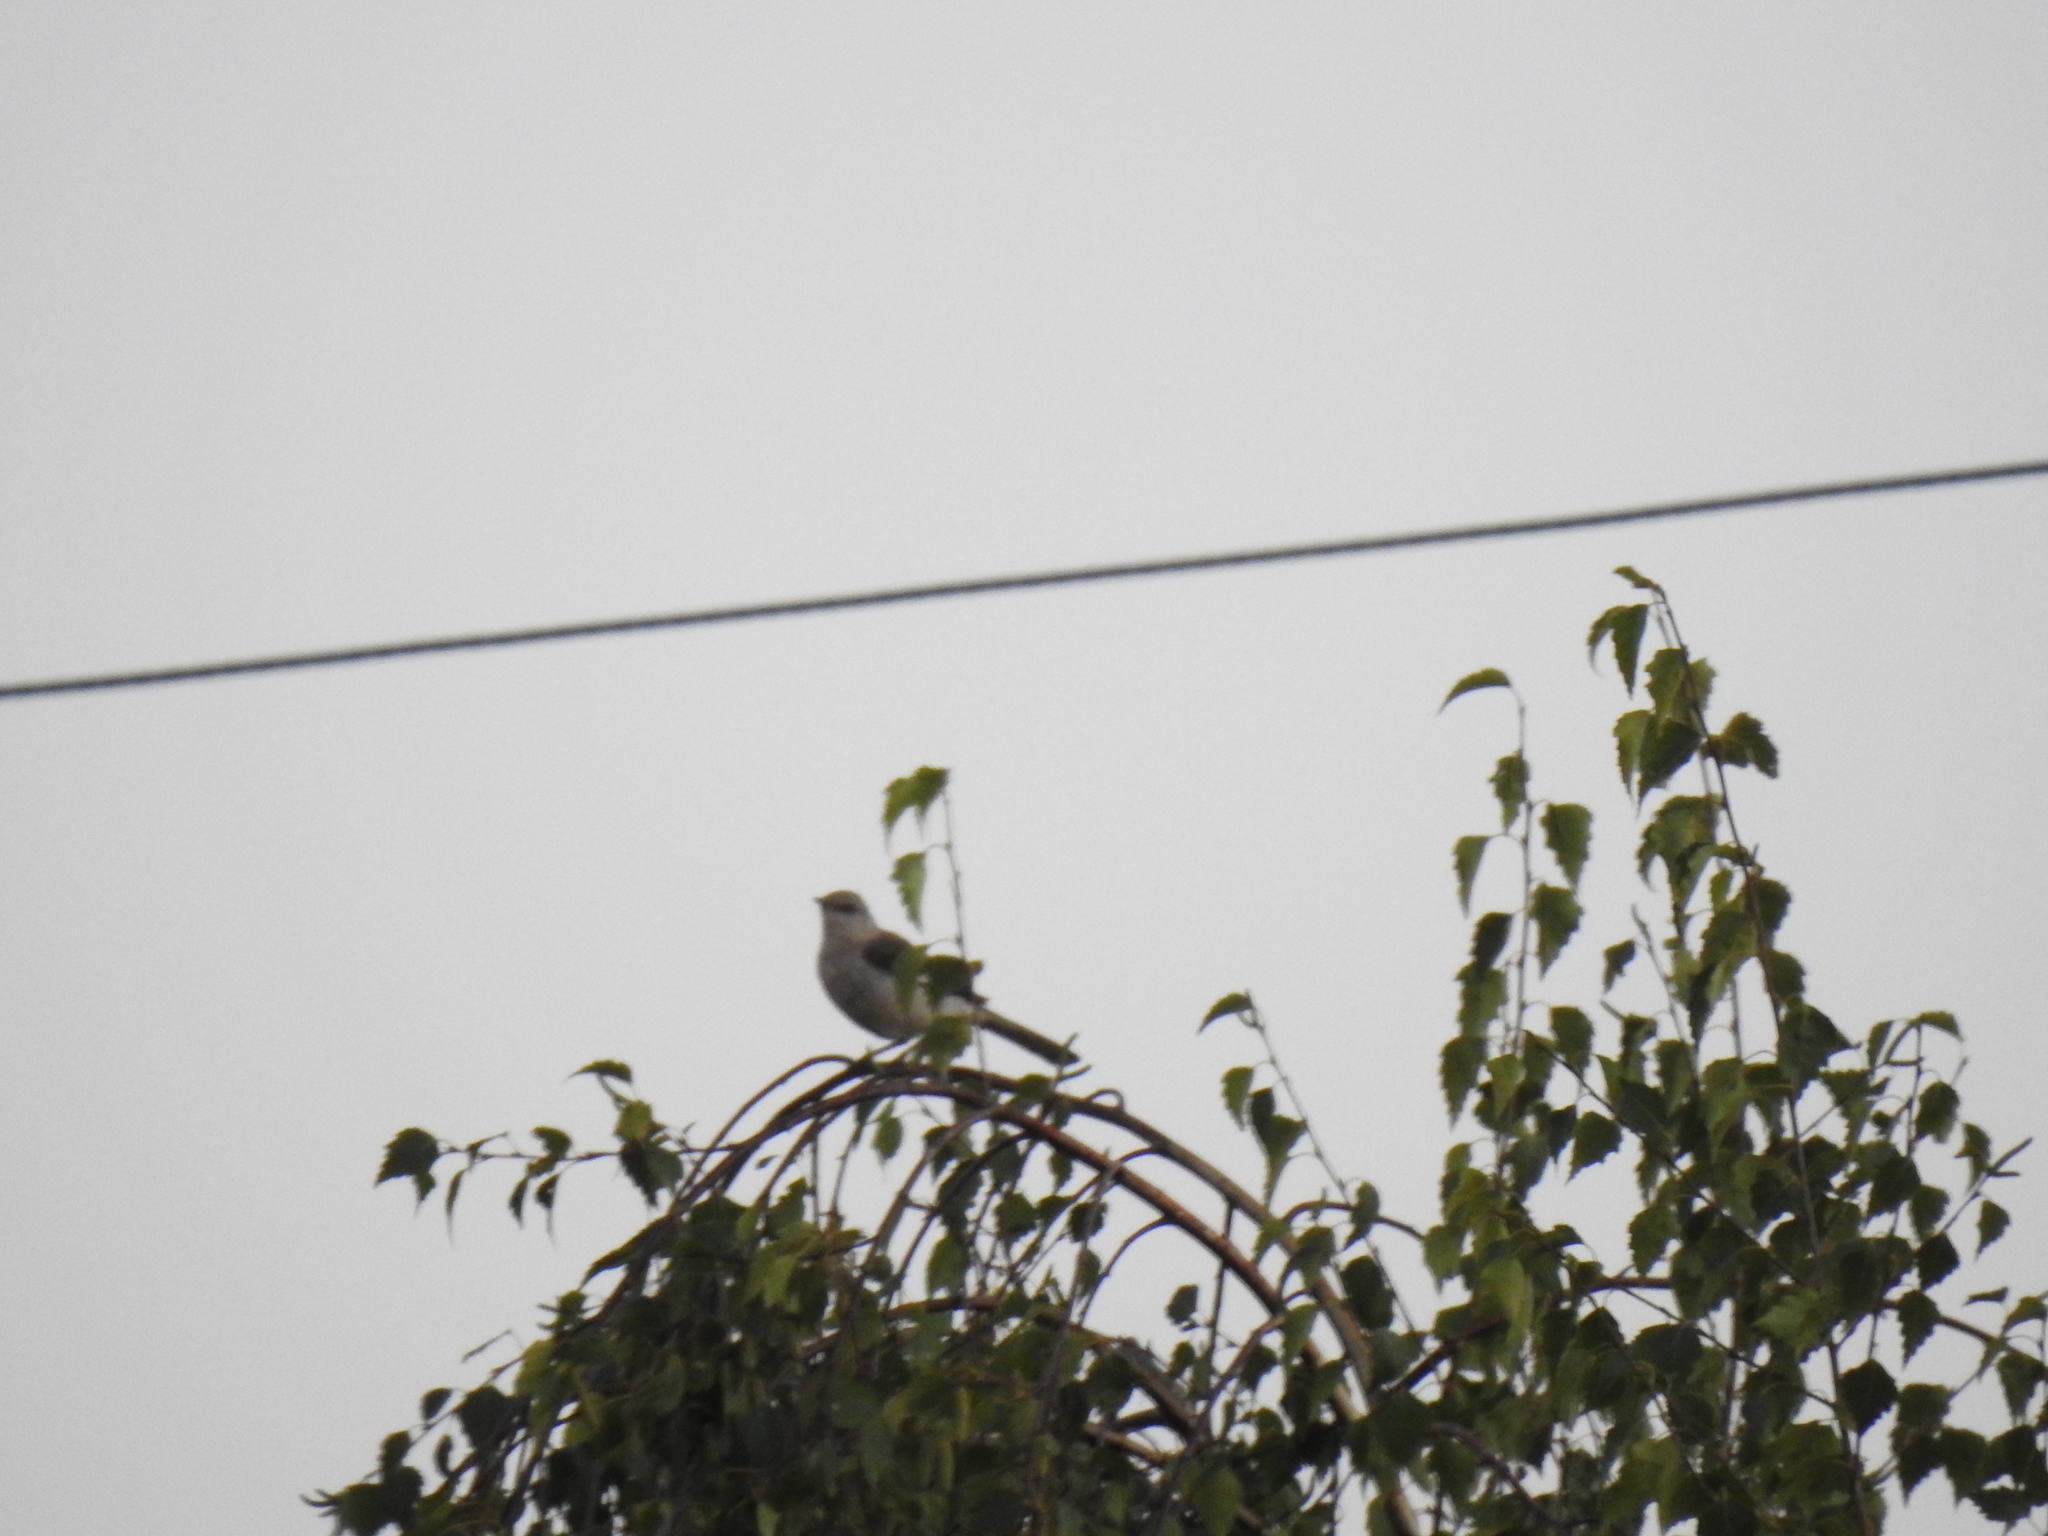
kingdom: Animalia
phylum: Chordata
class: Aves
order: Passeriformes
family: Mimidae
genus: Mimus
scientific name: Mimus polyglottos
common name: Northern mockingbird
